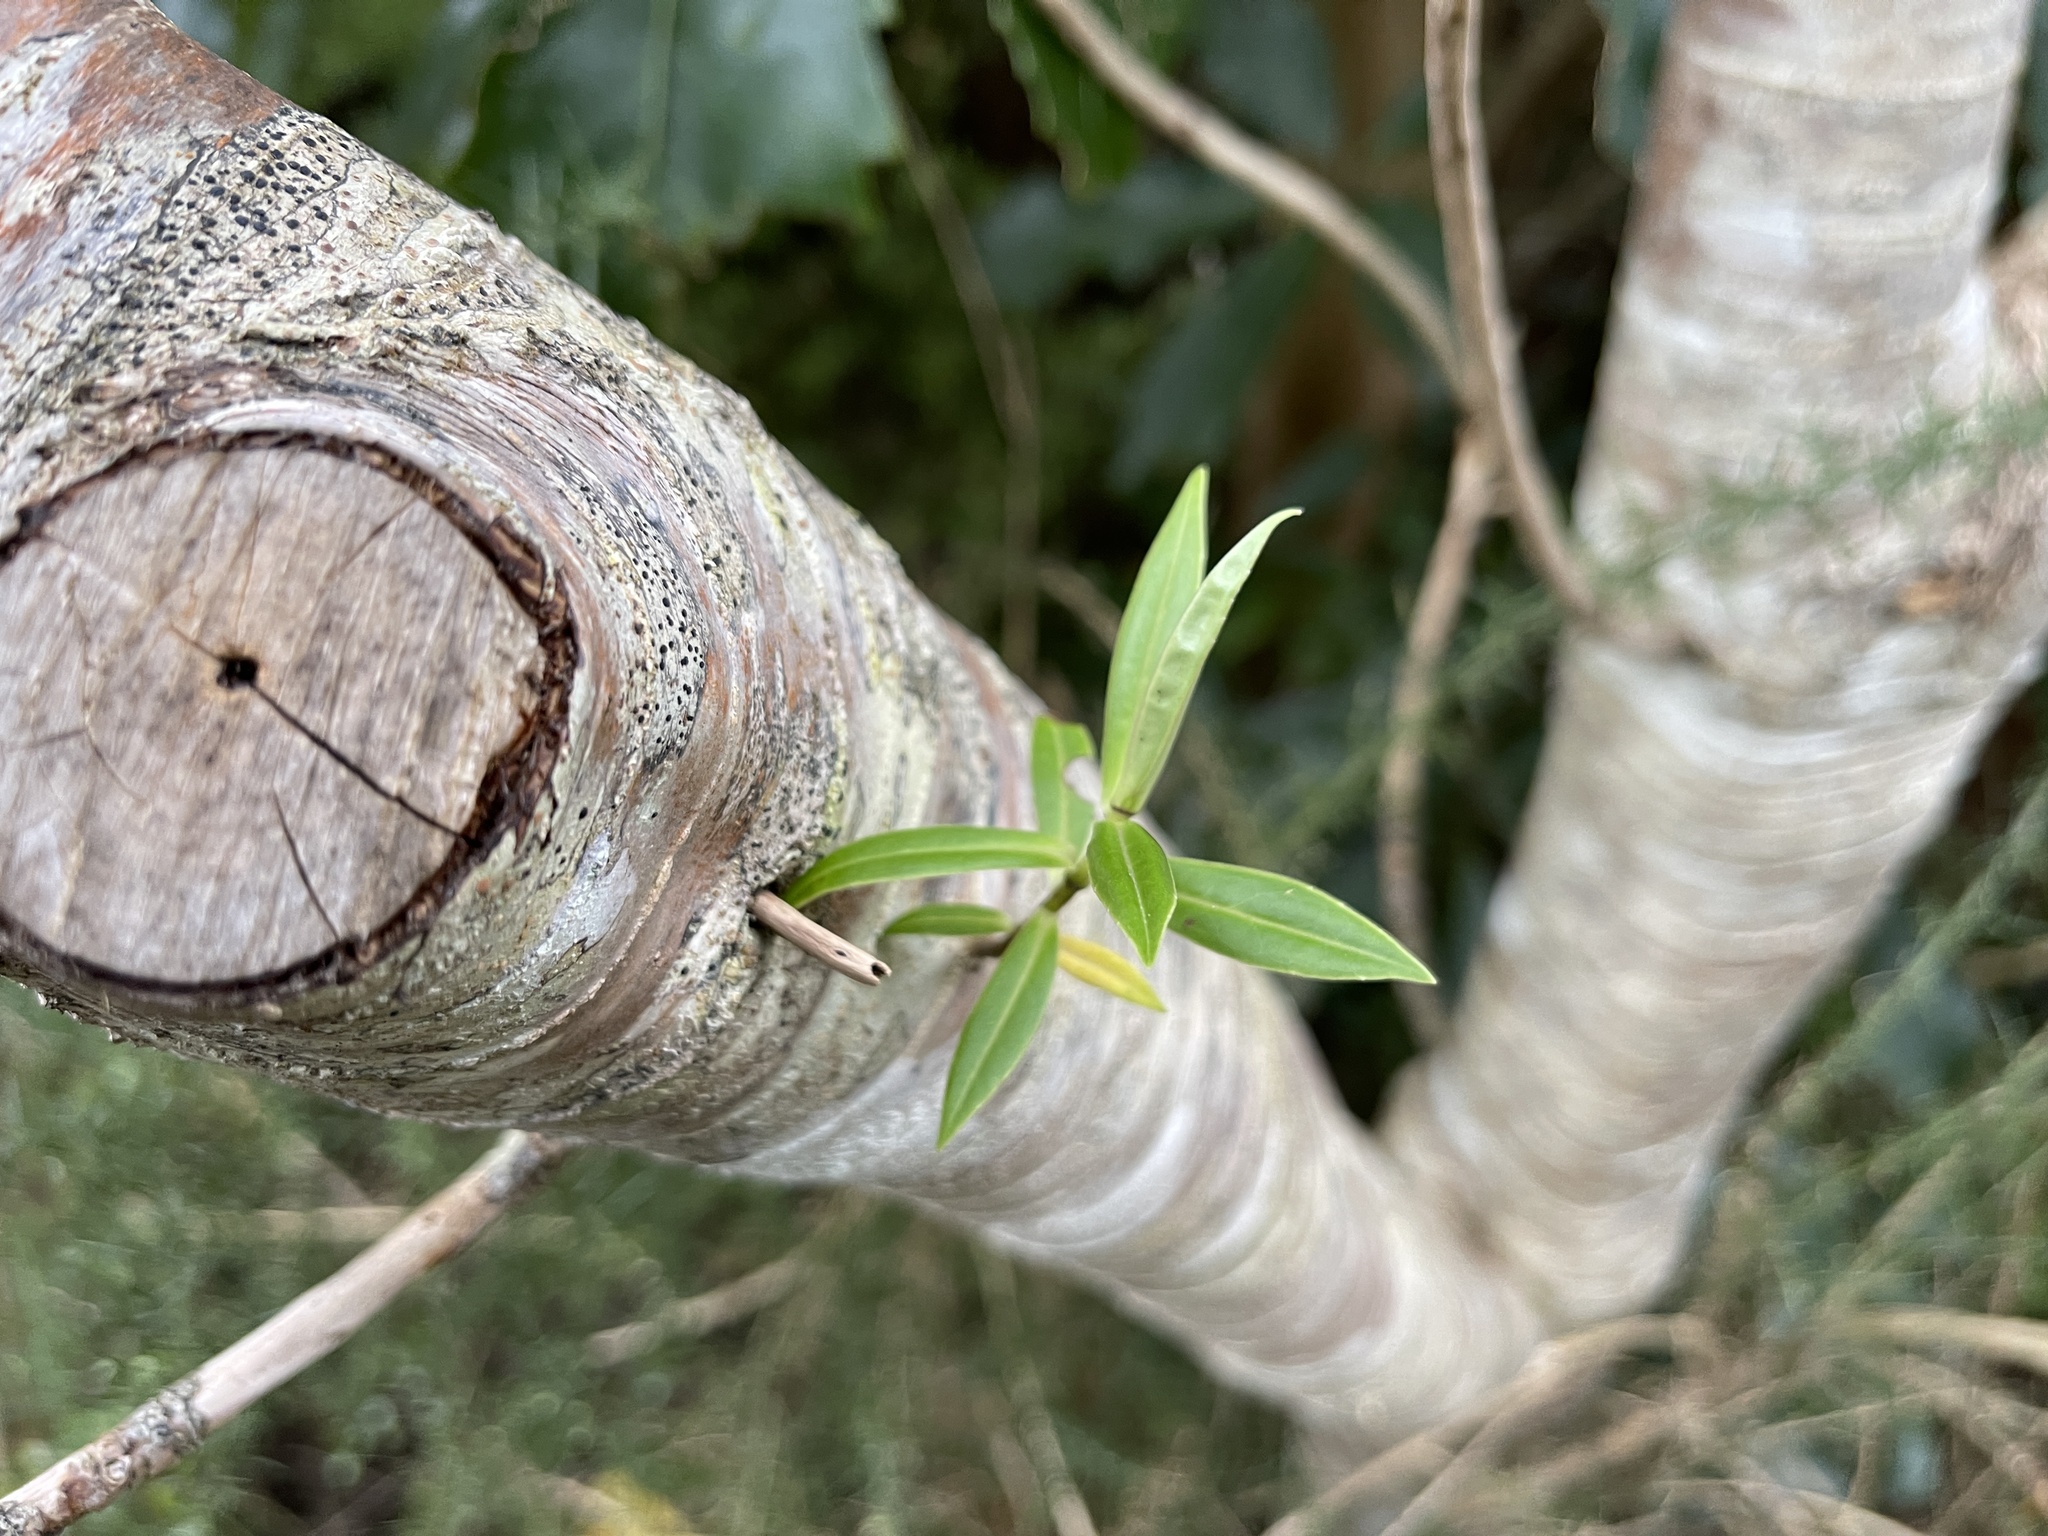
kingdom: Plantae
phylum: Tracheophyta
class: Magnoliopsida
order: Lamiales
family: Plantaginaceae
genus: Veronica
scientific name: Veronica salicifolia
